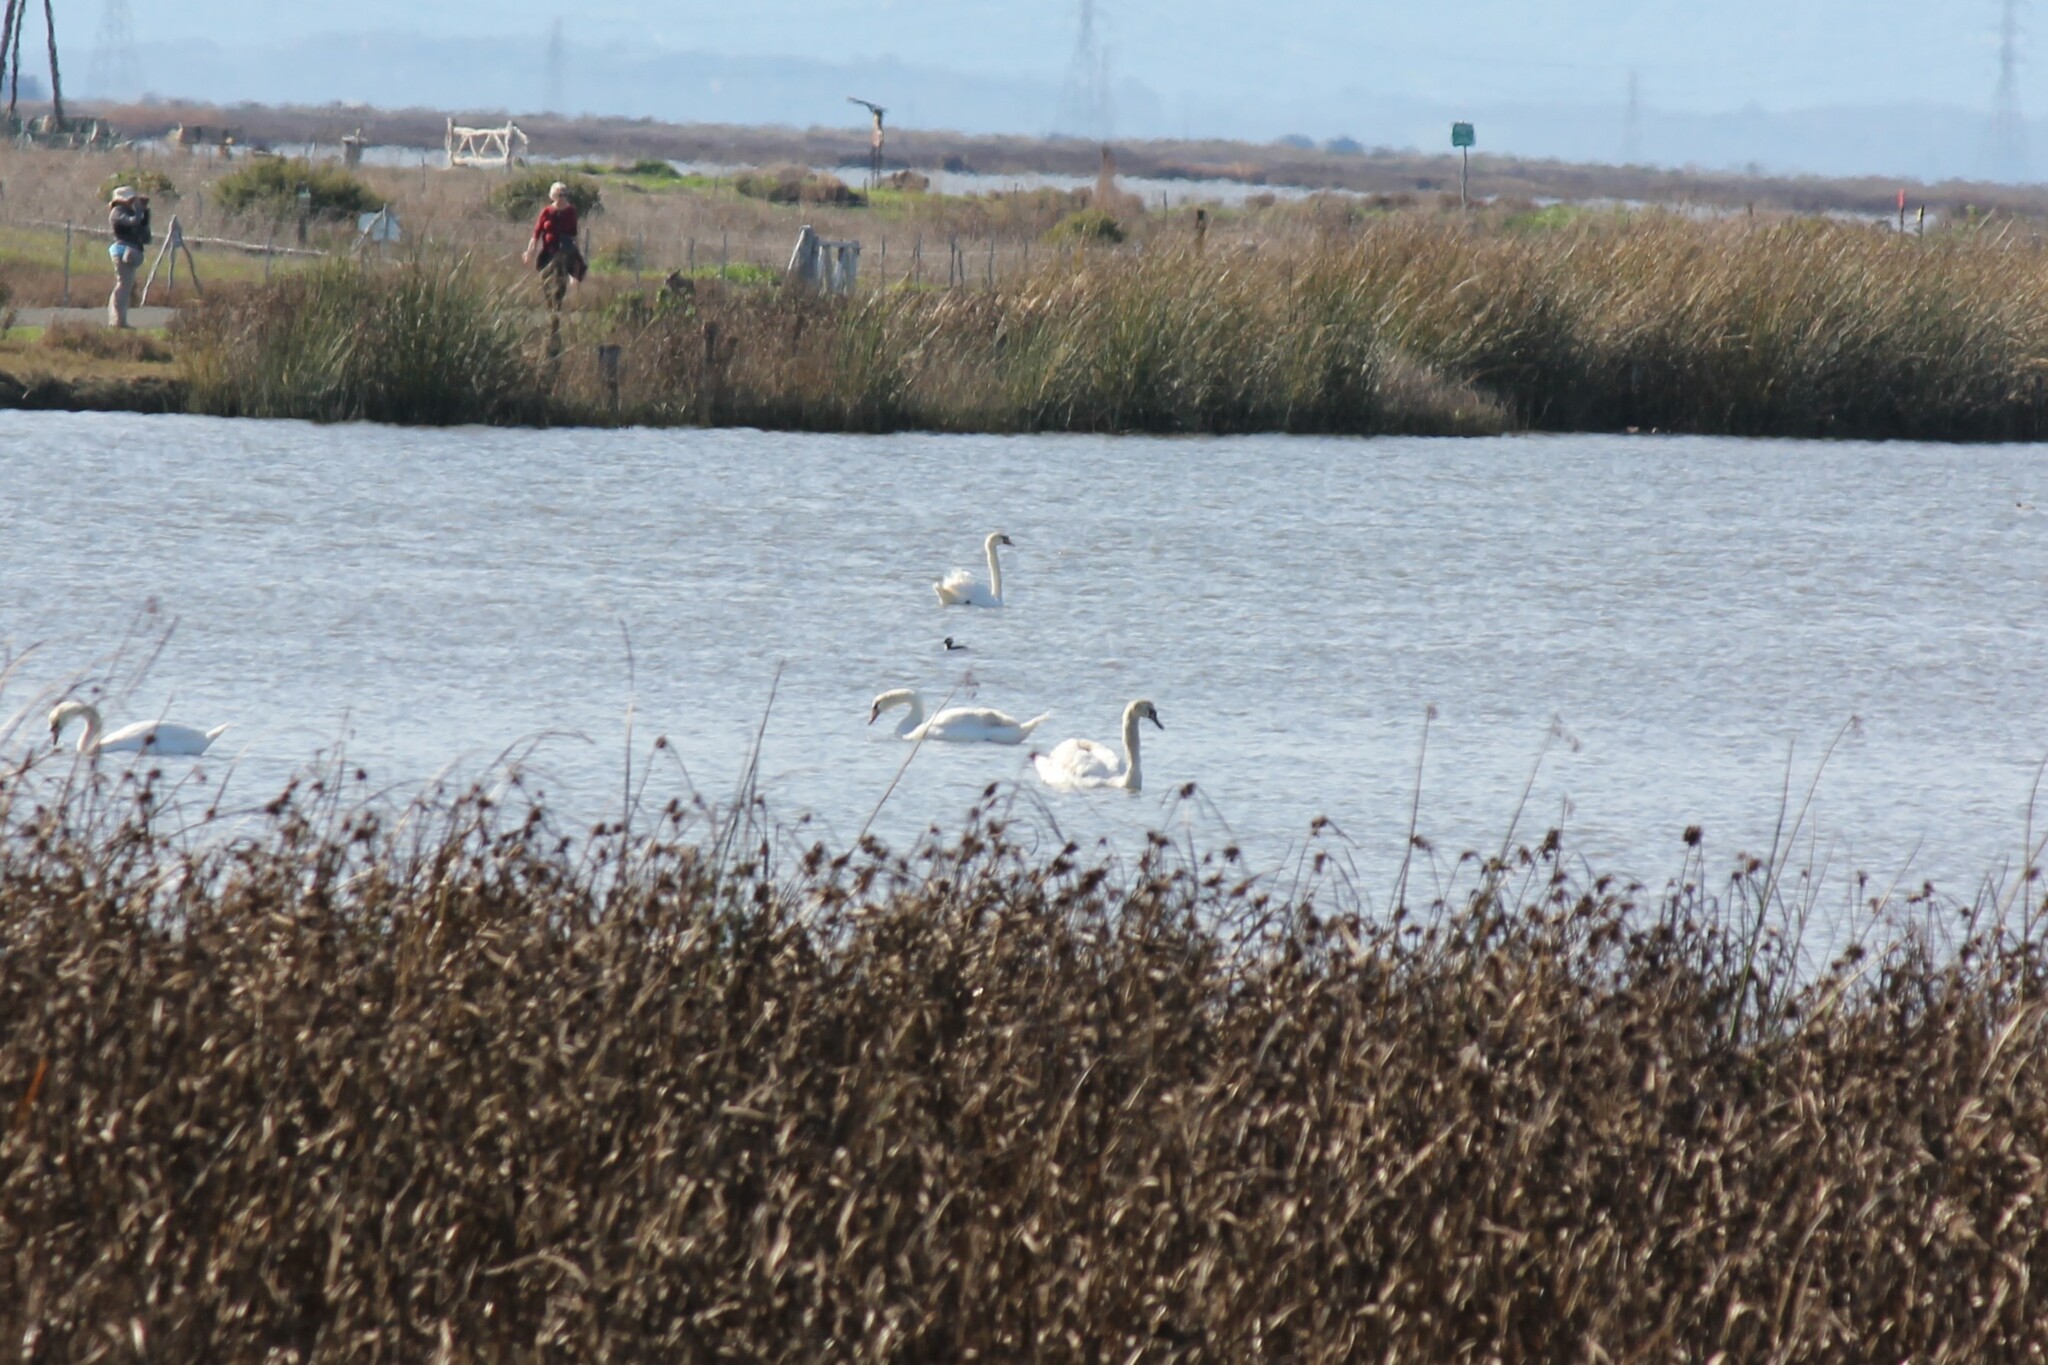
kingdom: Animalia
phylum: Chordata
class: Aves
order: Anseriformes
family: Anatidae
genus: Cygnus
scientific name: Cygnus olor
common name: Mute swan
